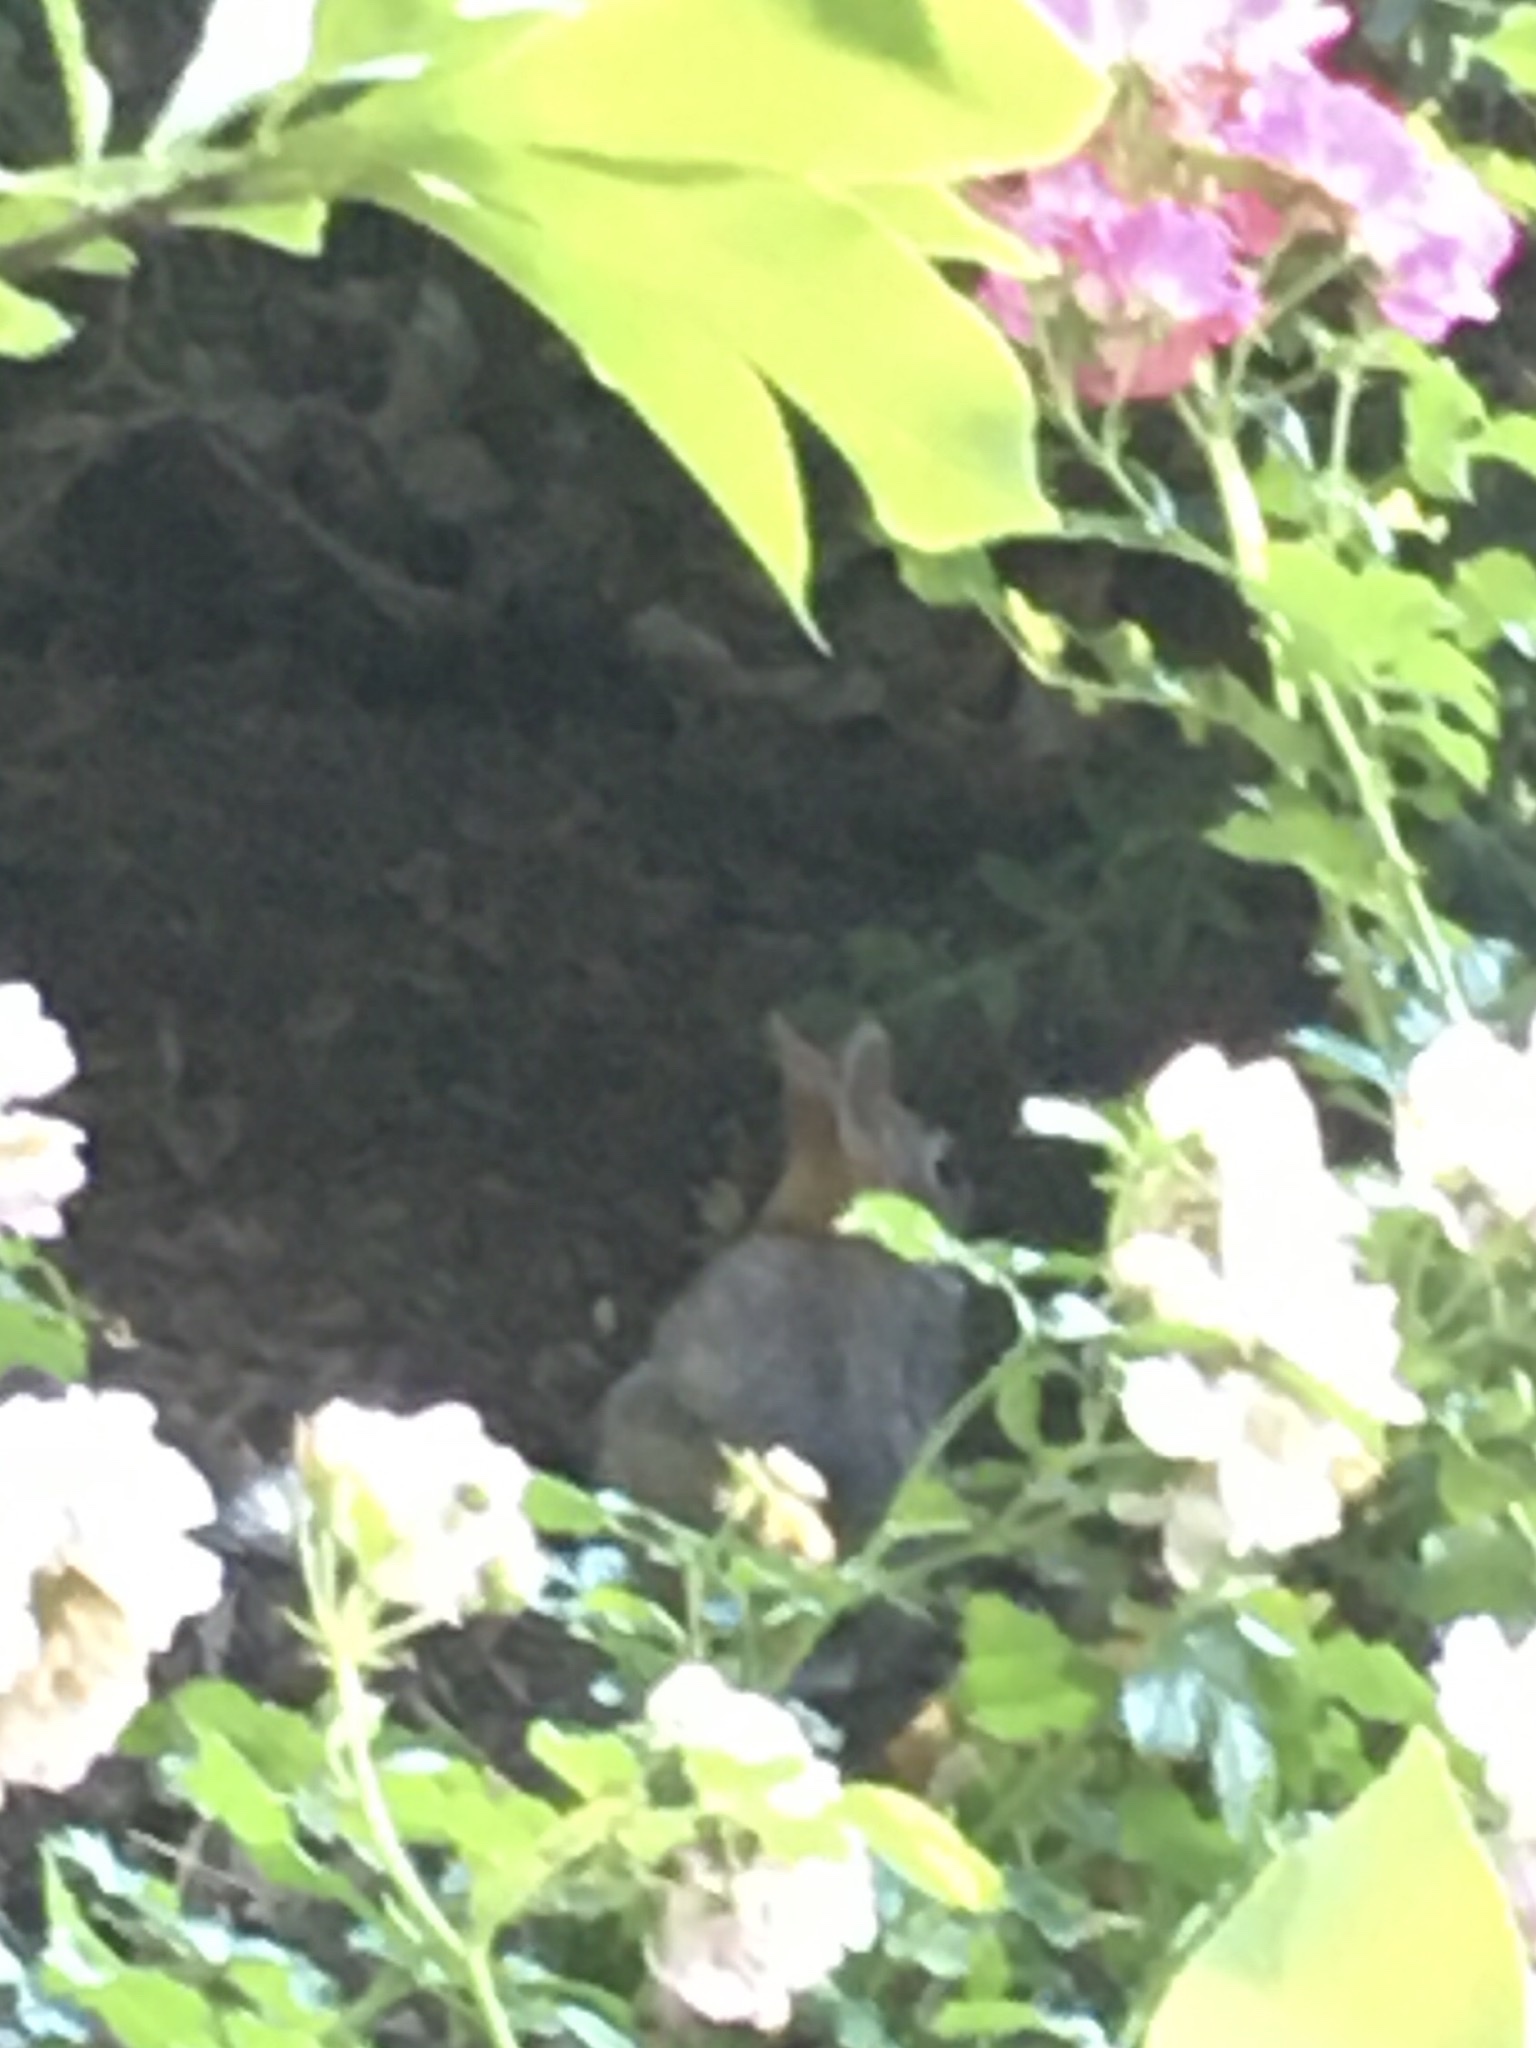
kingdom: Animalia
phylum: Chordata
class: Mammalia
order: Lagomorpha
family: Leporidae
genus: Sylvilagus
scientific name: Sylvilagus floridanus
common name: Eastern cottontail
